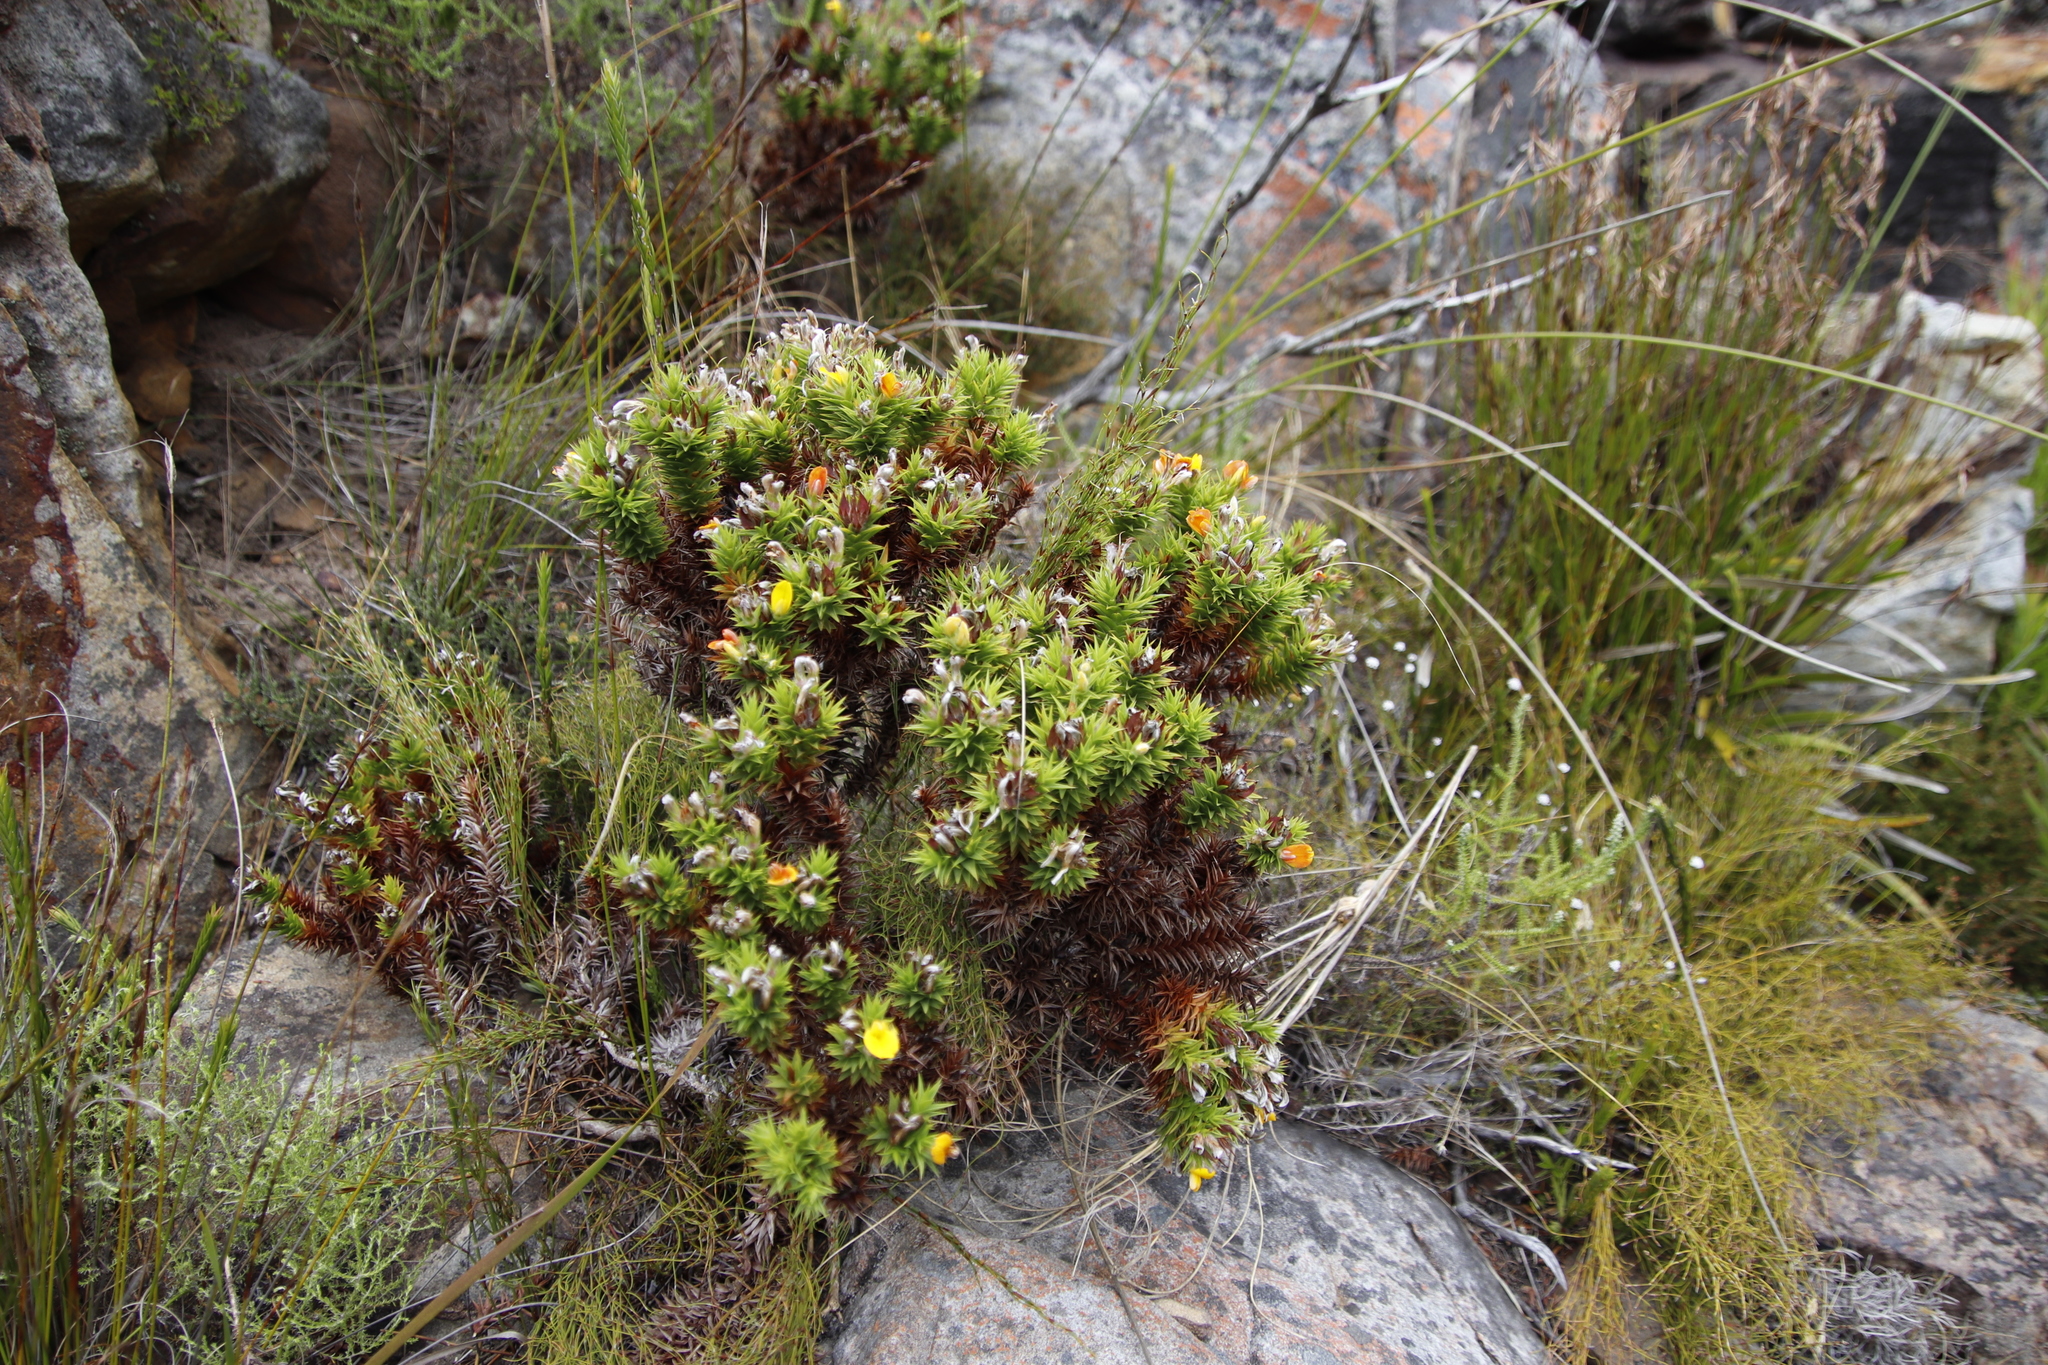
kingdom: Plantae
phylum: Tracheophyta
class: Magnoliopsida
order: Fabales
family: Fabaceae
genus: Aspalathus
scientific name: Aspalathus barbata
